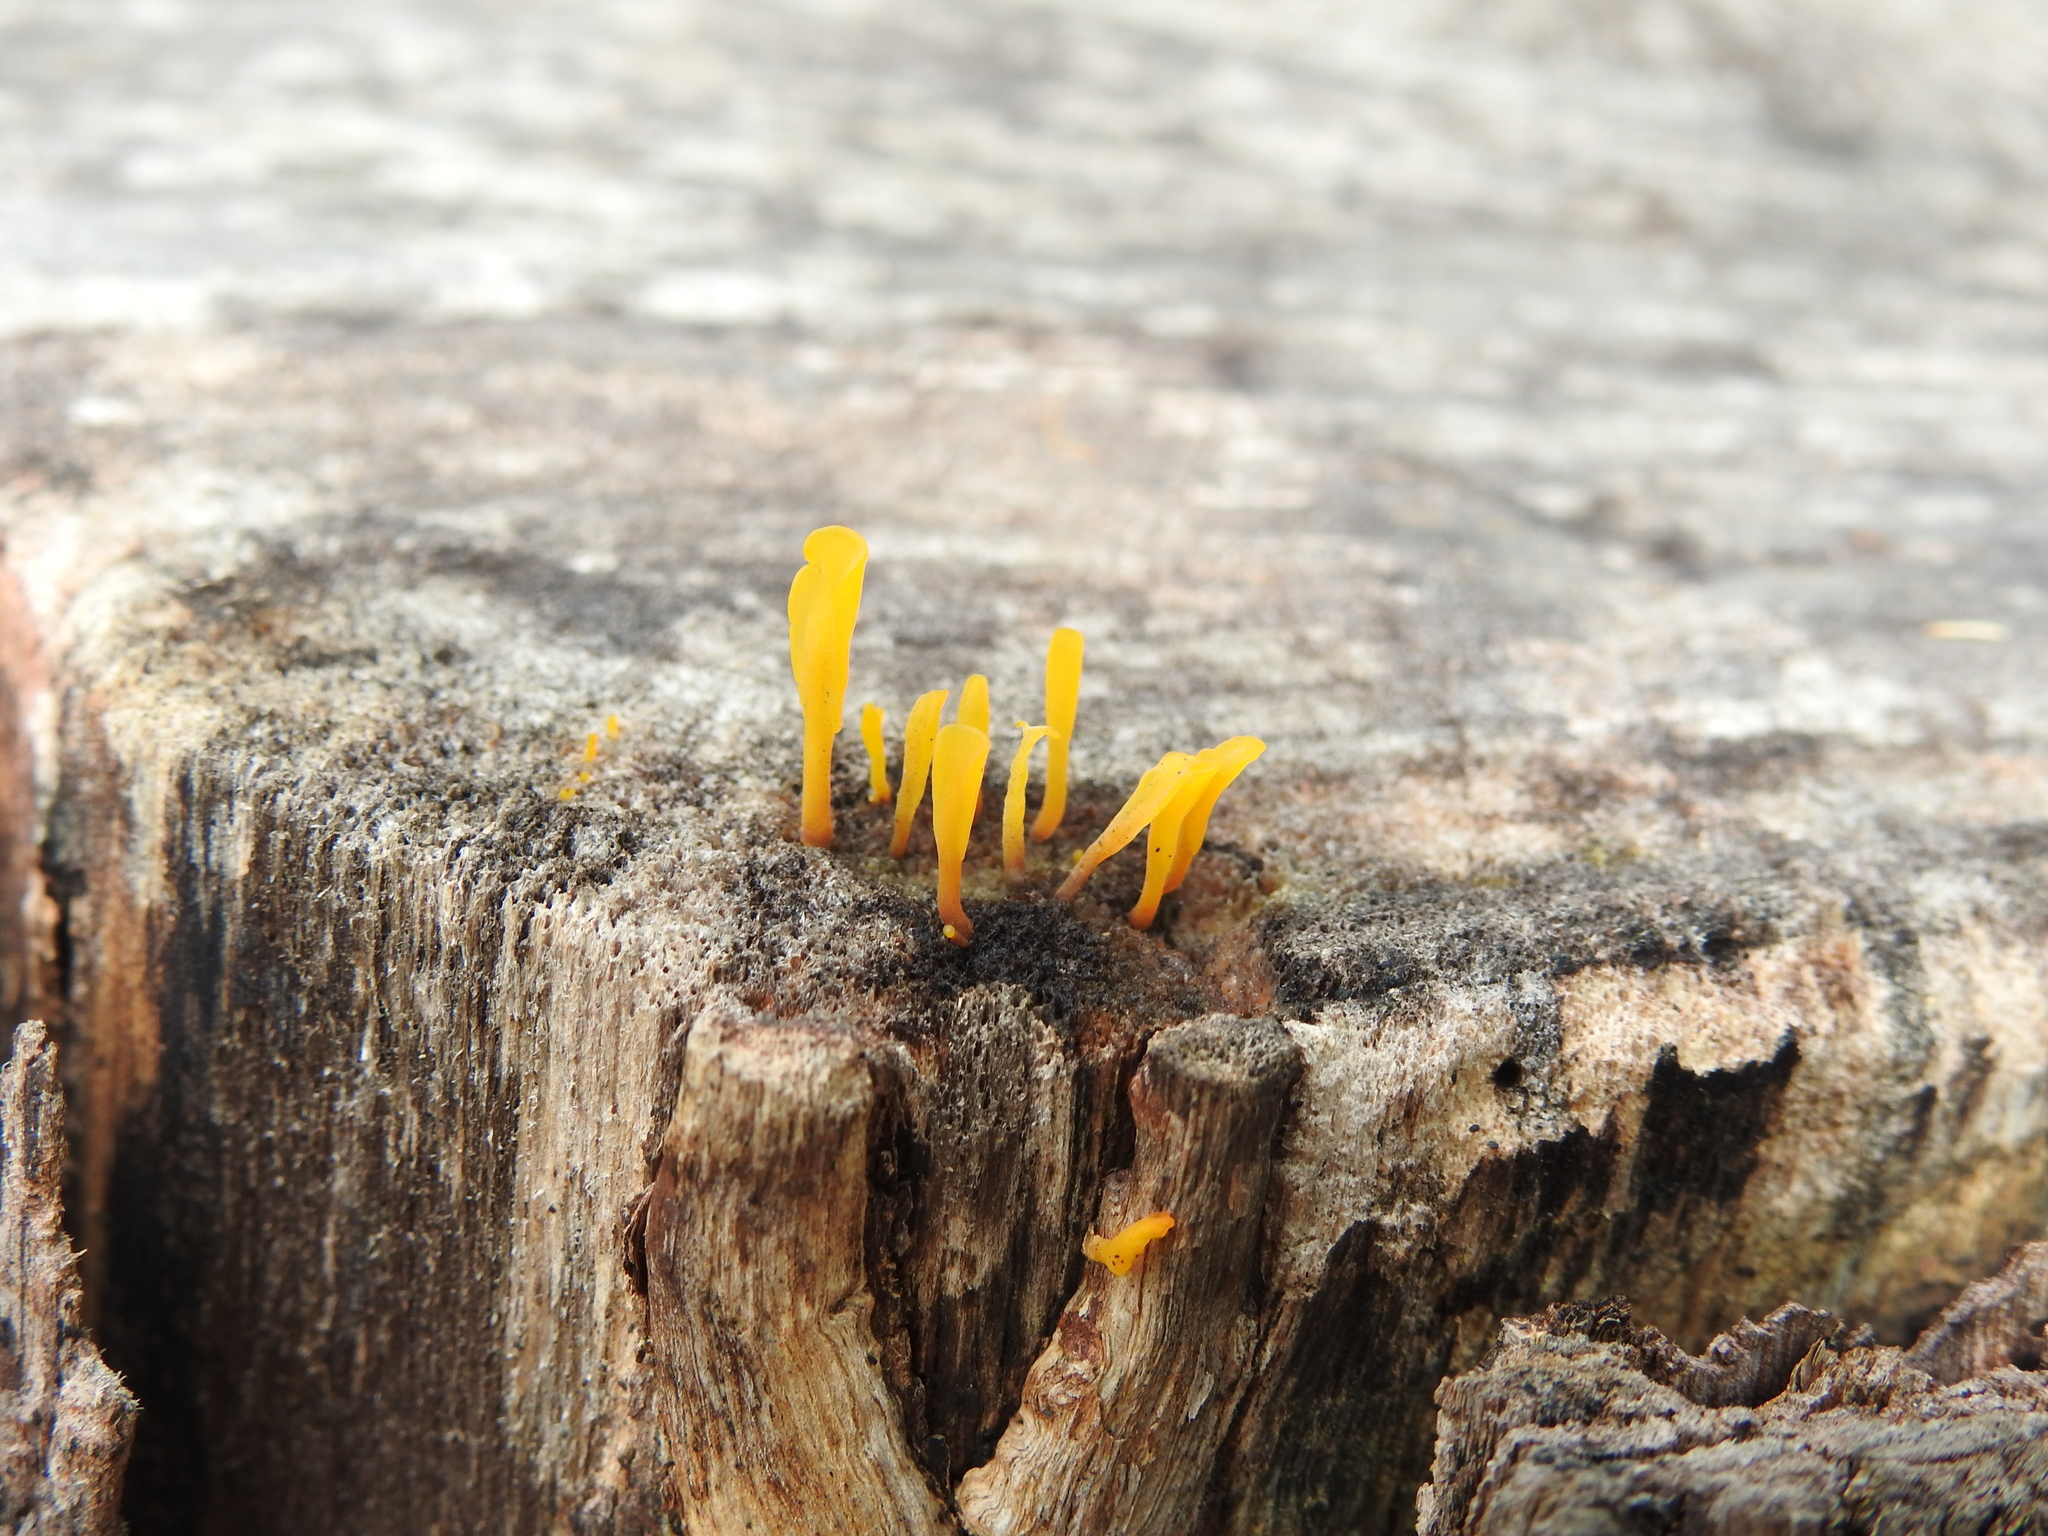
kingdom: Fungi
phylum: Basidiomycota
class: Dacrymycetes
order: Dacrymycetales
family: Dacrymycetaceae
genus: Dacrymyces
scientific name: Dacrymyces spathularius
